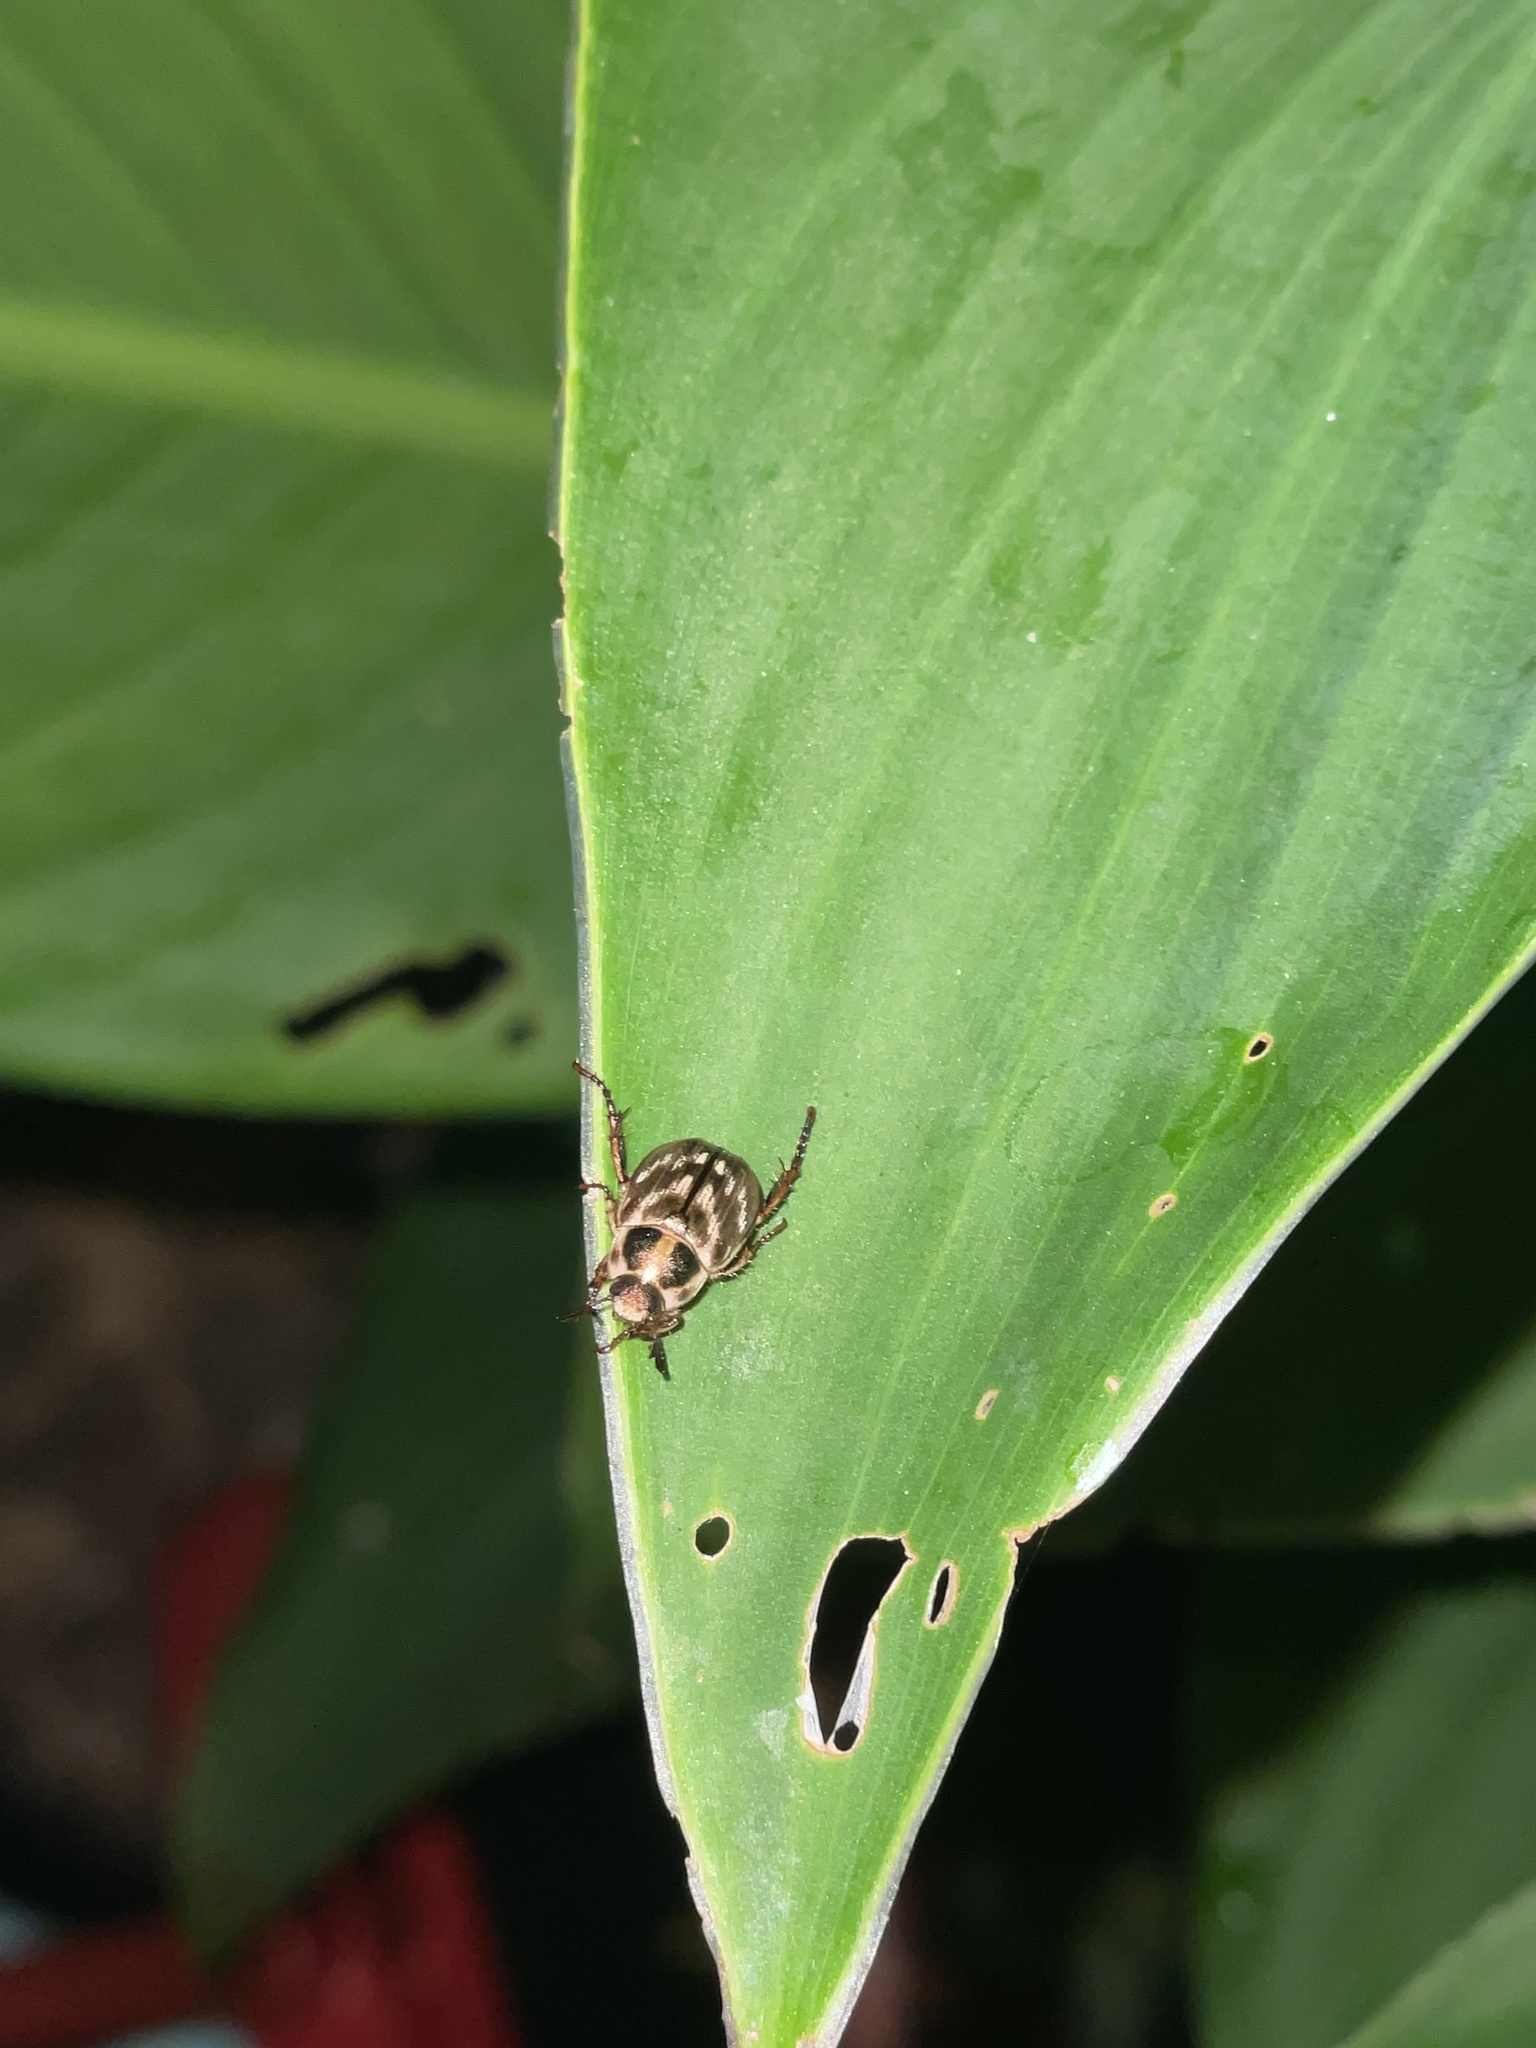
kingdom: Animalia
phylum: Arthropoda
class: Insecta
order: Coleoptera
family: Scarabaeidae
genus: Exomala
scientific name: Exomala orientalis
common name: Oriental beetle
